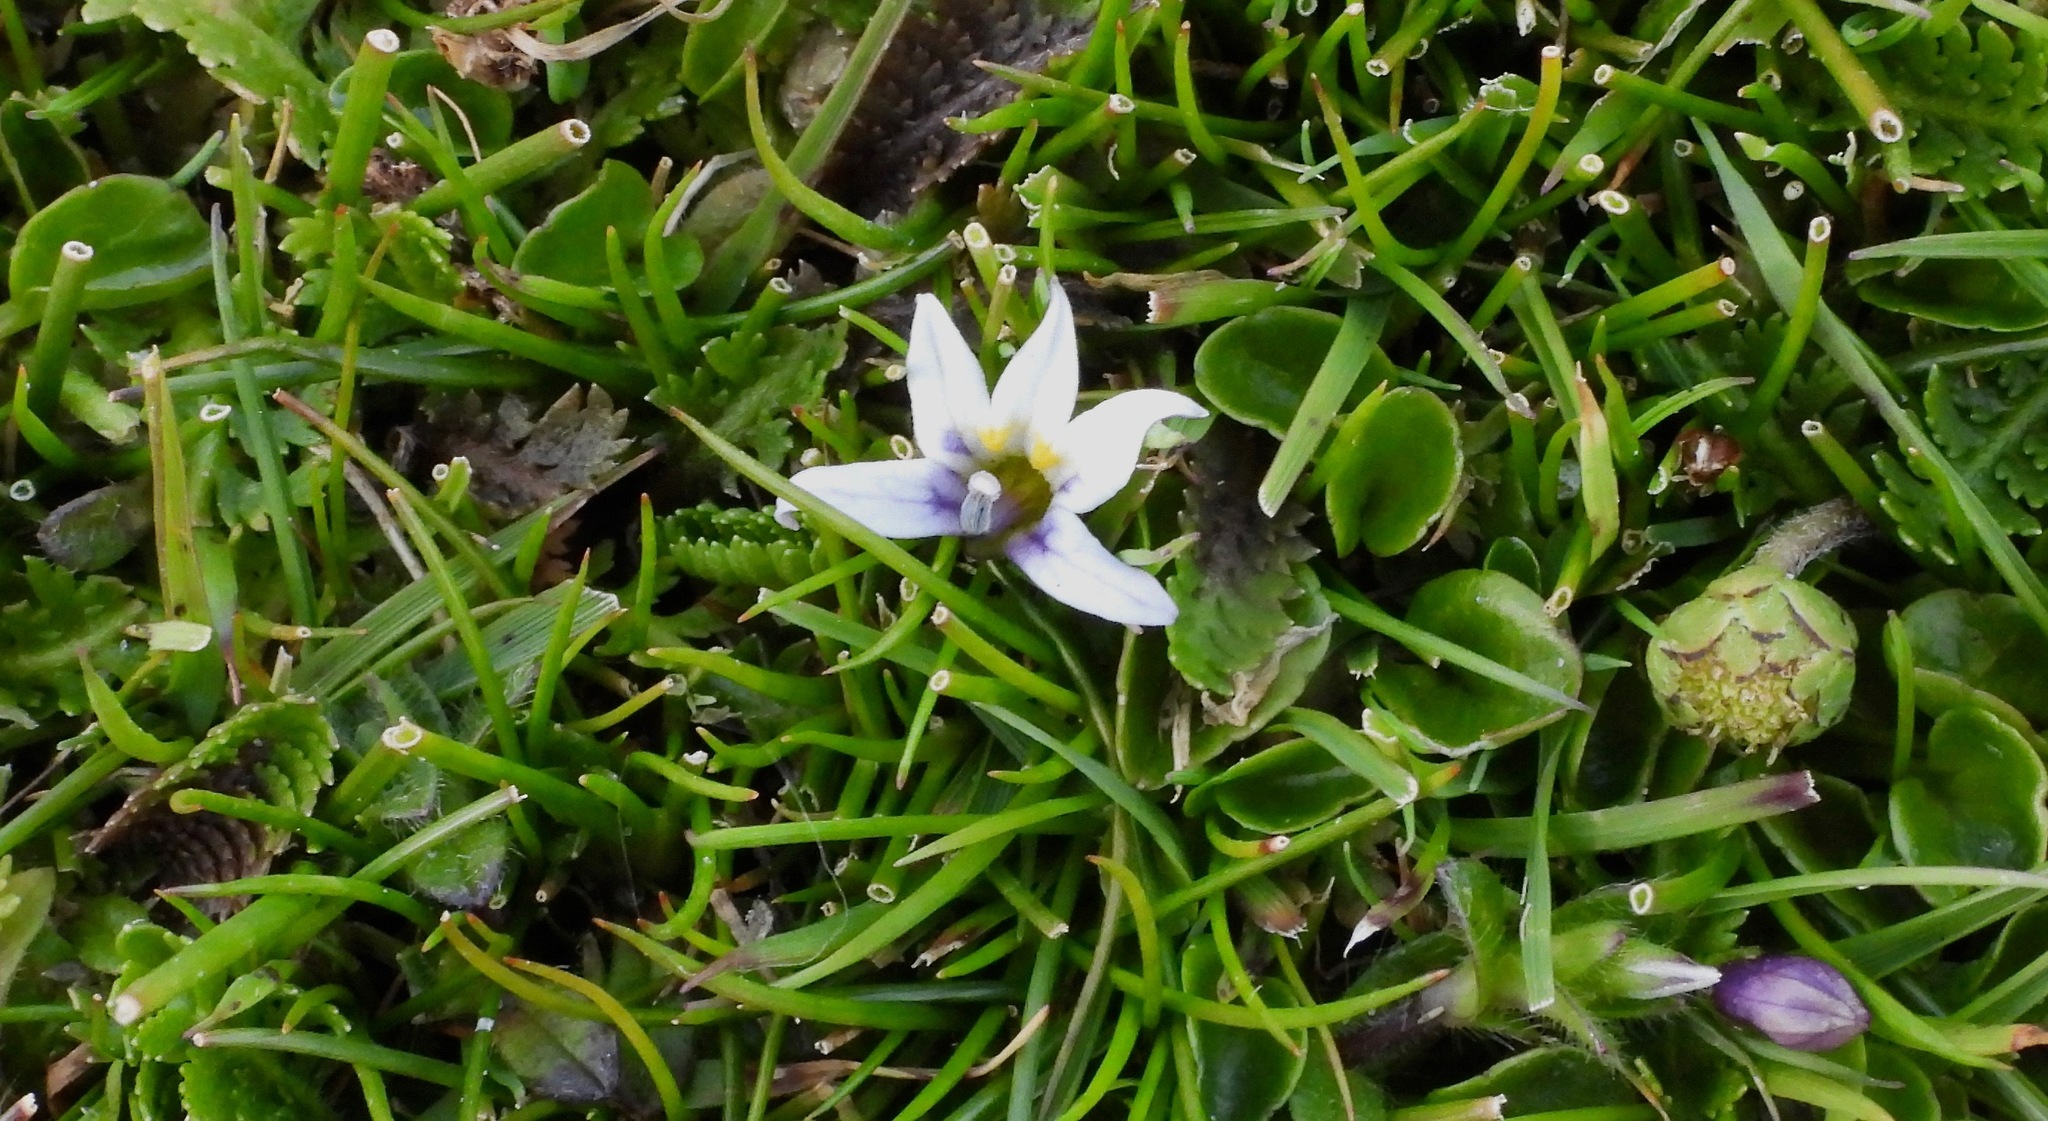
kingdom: Plantae
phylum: Tracheophyta
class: Magnoliopsida
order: Asterales
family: Campanulaceae
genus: Lobelia
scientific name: Lobelia pratiana
